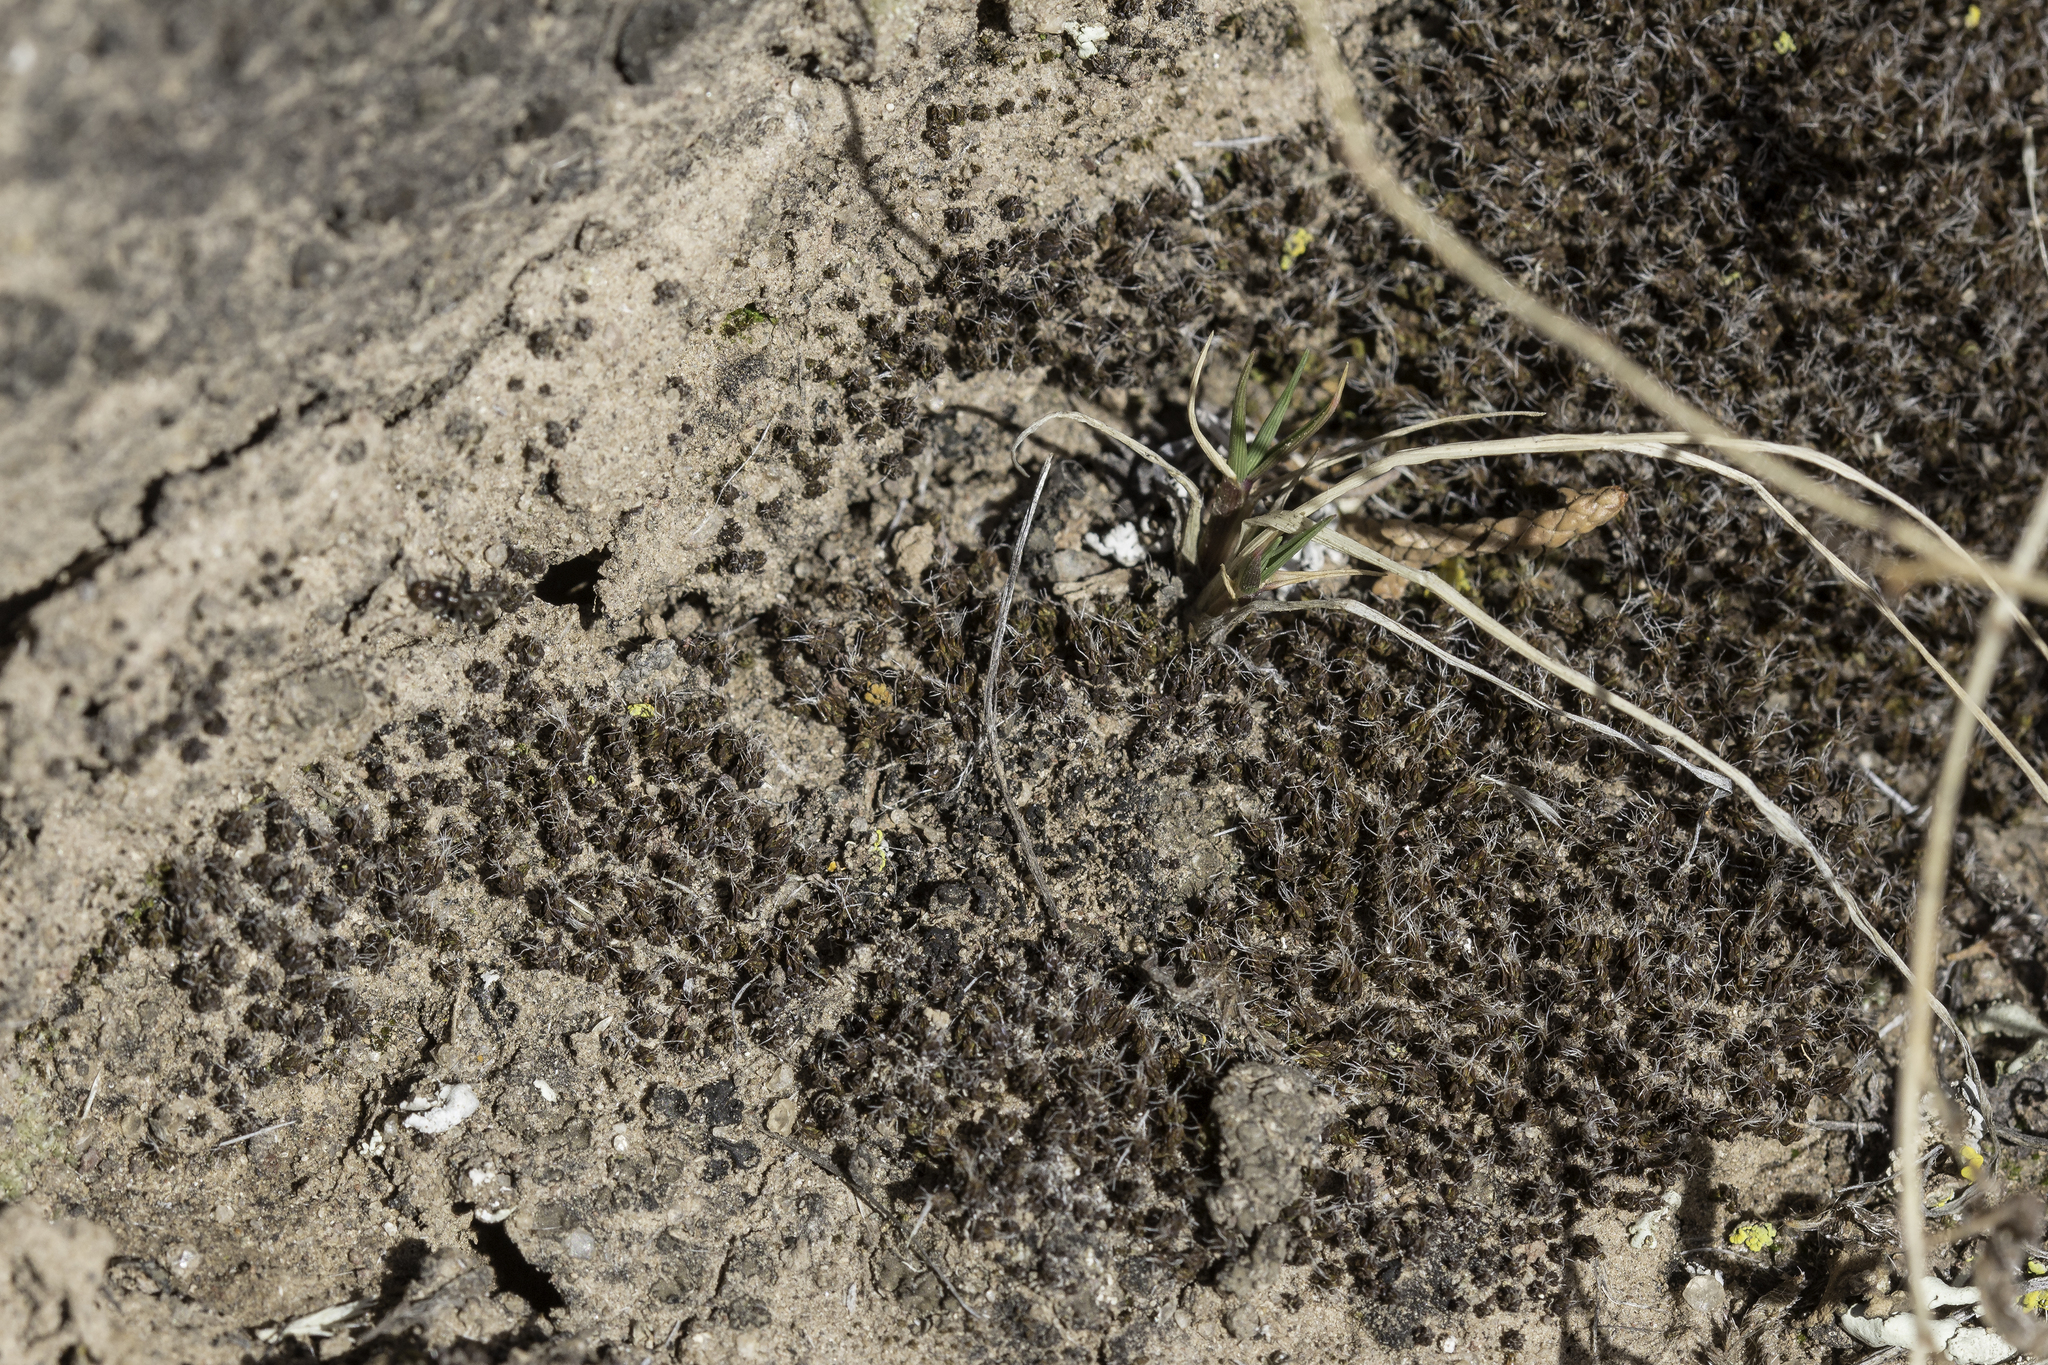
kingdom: Plantae
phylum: Bryophyta
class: Bryopsida
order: Pottiales
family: Pottiaceae
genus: Syntrichia
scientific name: Syntrichia caninervis
